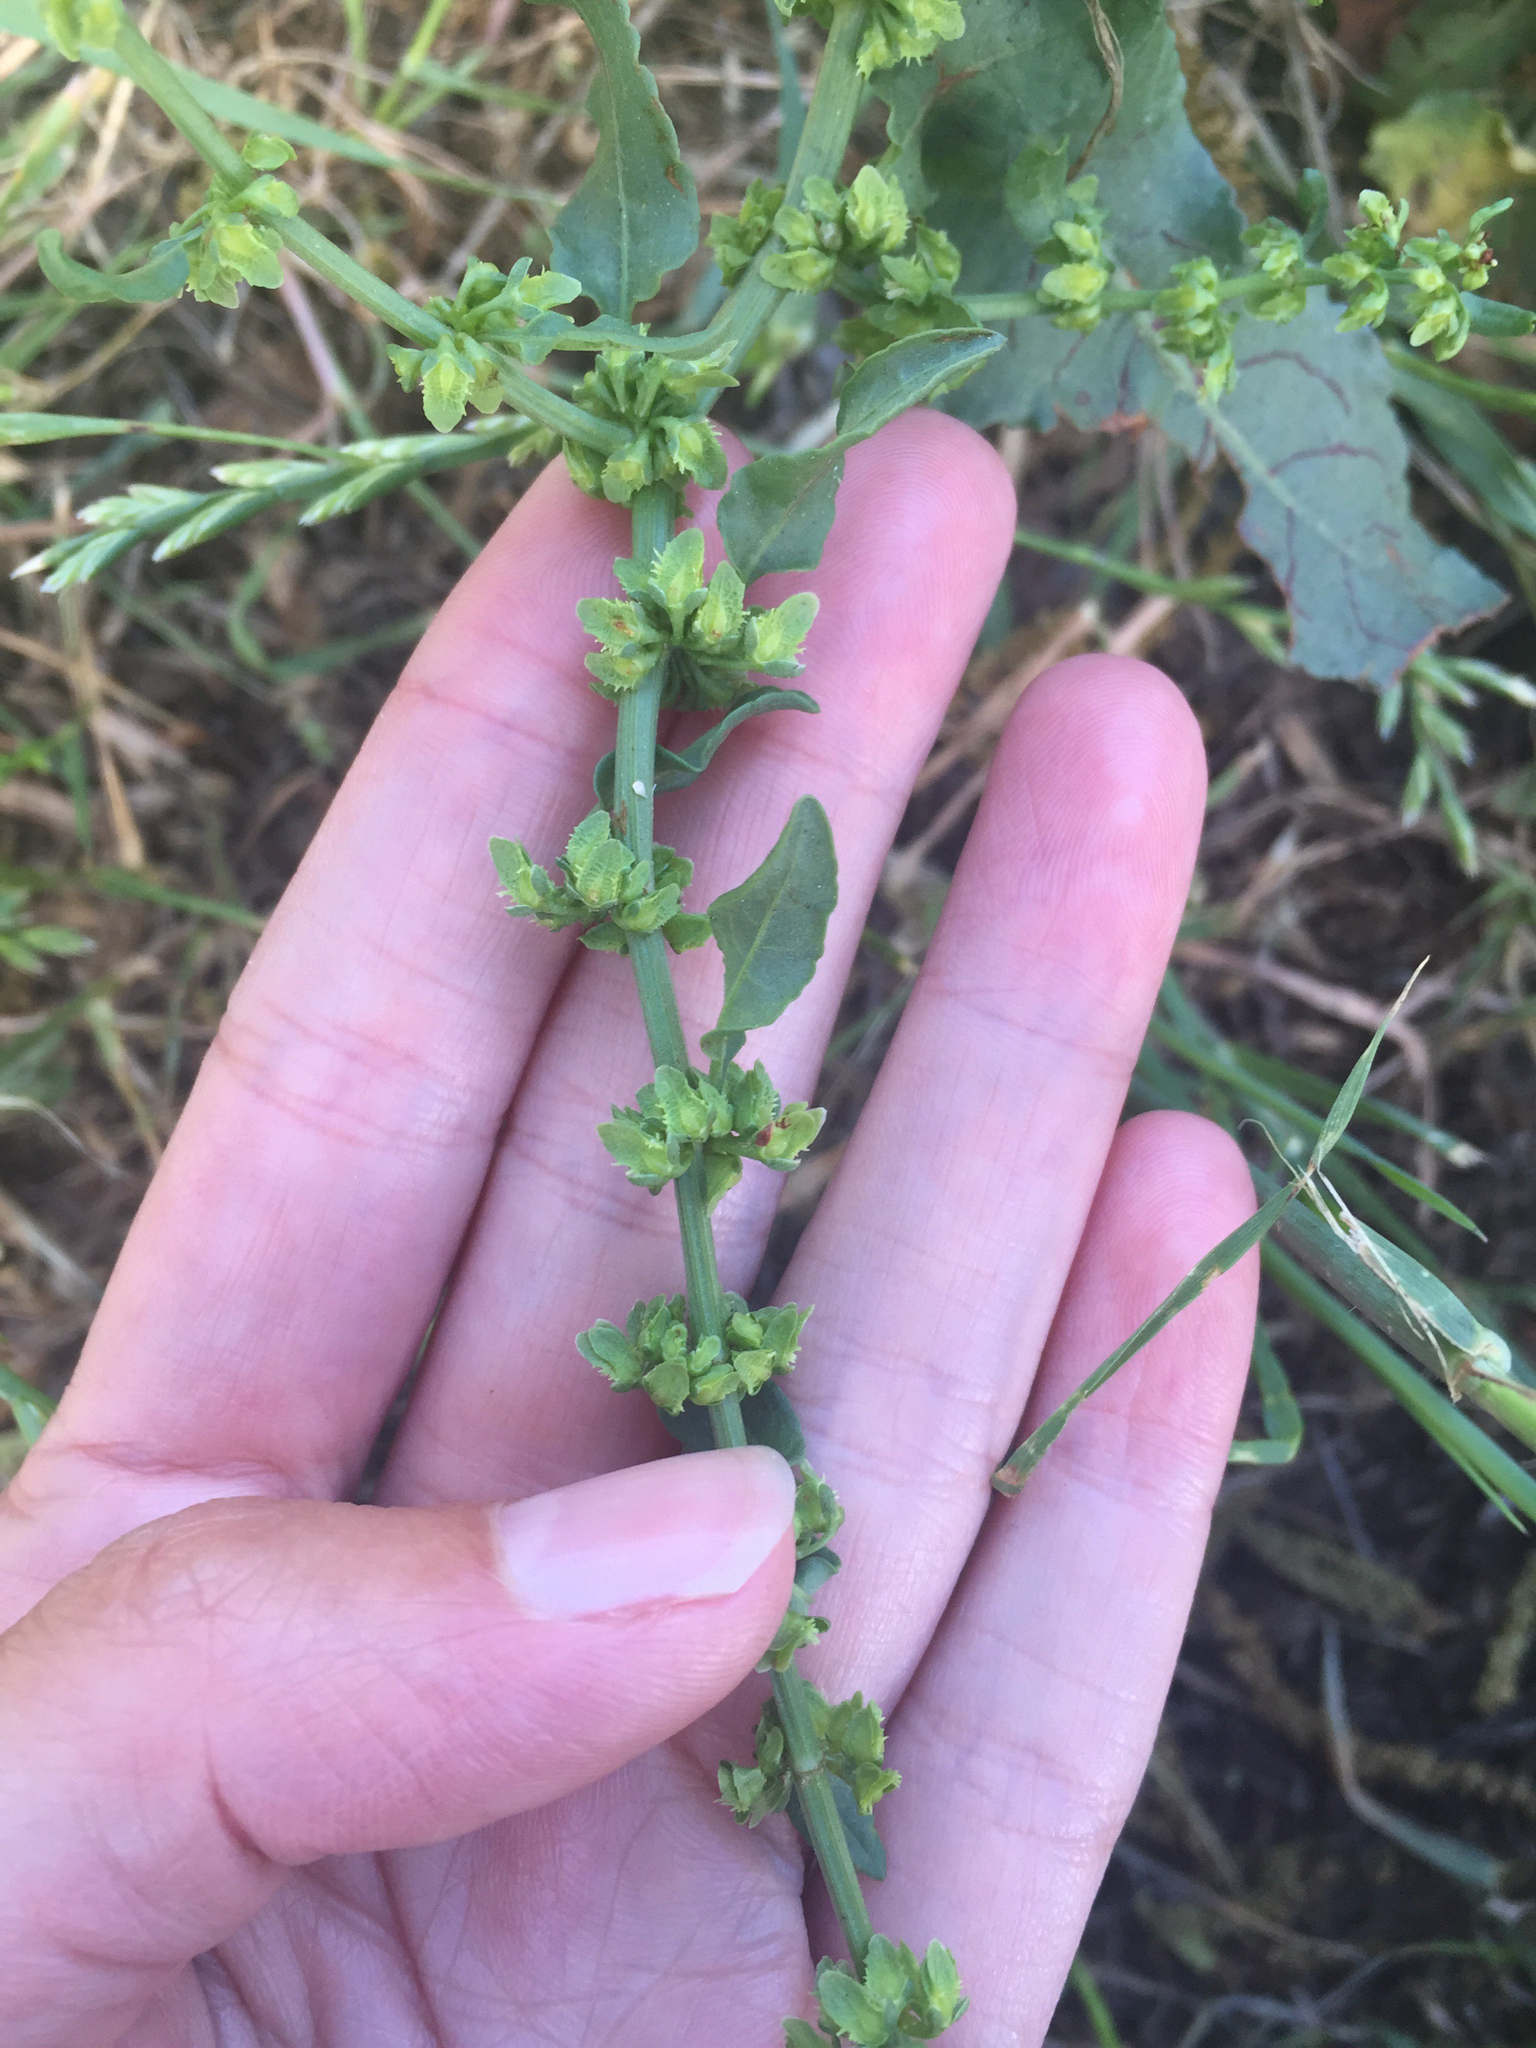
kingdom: Plantae
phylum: Tracheophyta
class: Magnoliopsida
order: Caryophyllales
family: Polygonaceae
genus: Rumex
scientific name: Rumex pulcher
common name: Fiddle dock
